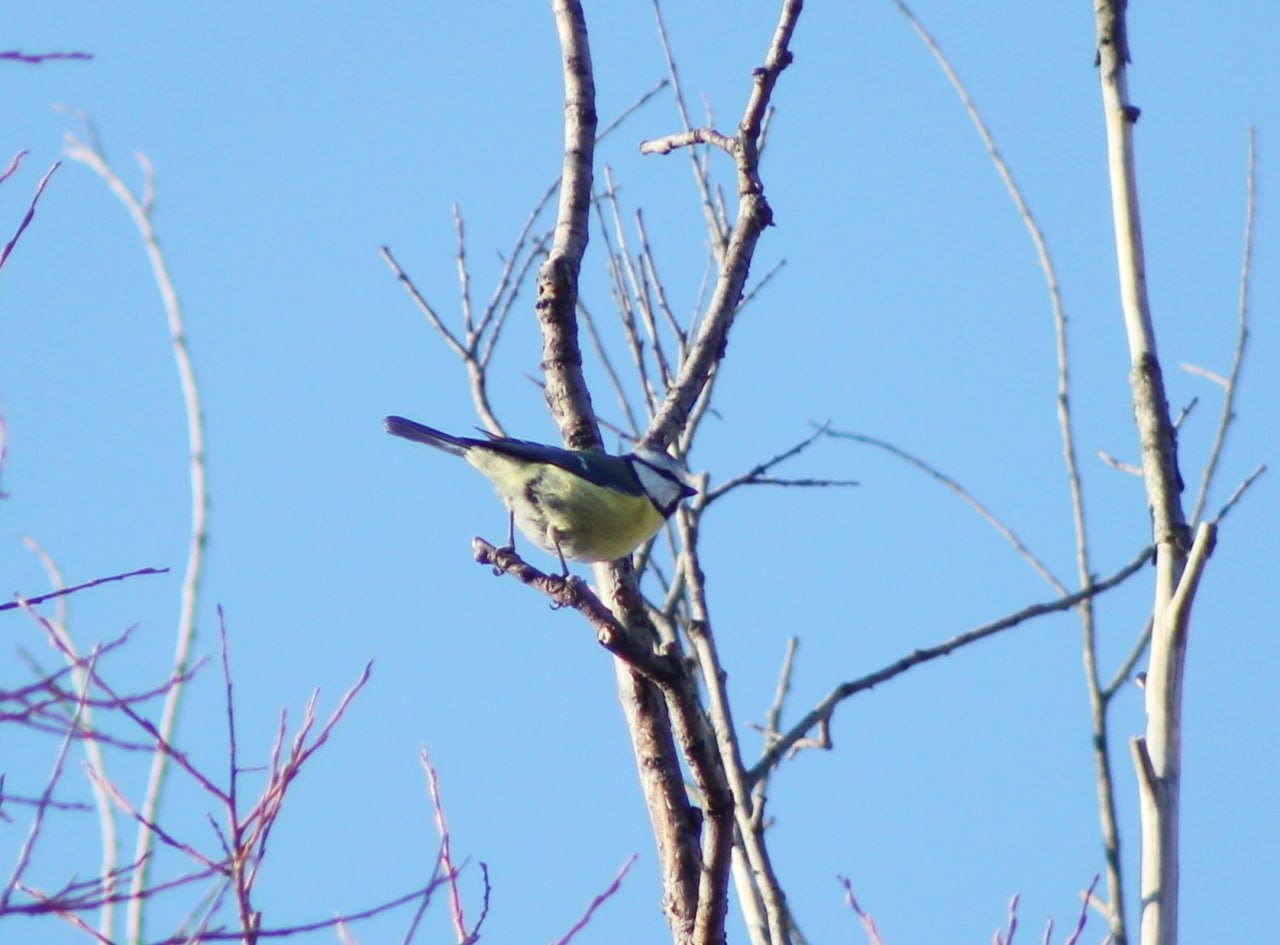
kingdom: Animalia
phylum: Chordata
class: Aves
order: Passeriformes
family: Paridae
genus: Cyanistes
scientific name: Cyanistes caeruleus
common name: Eurasian blue tit
